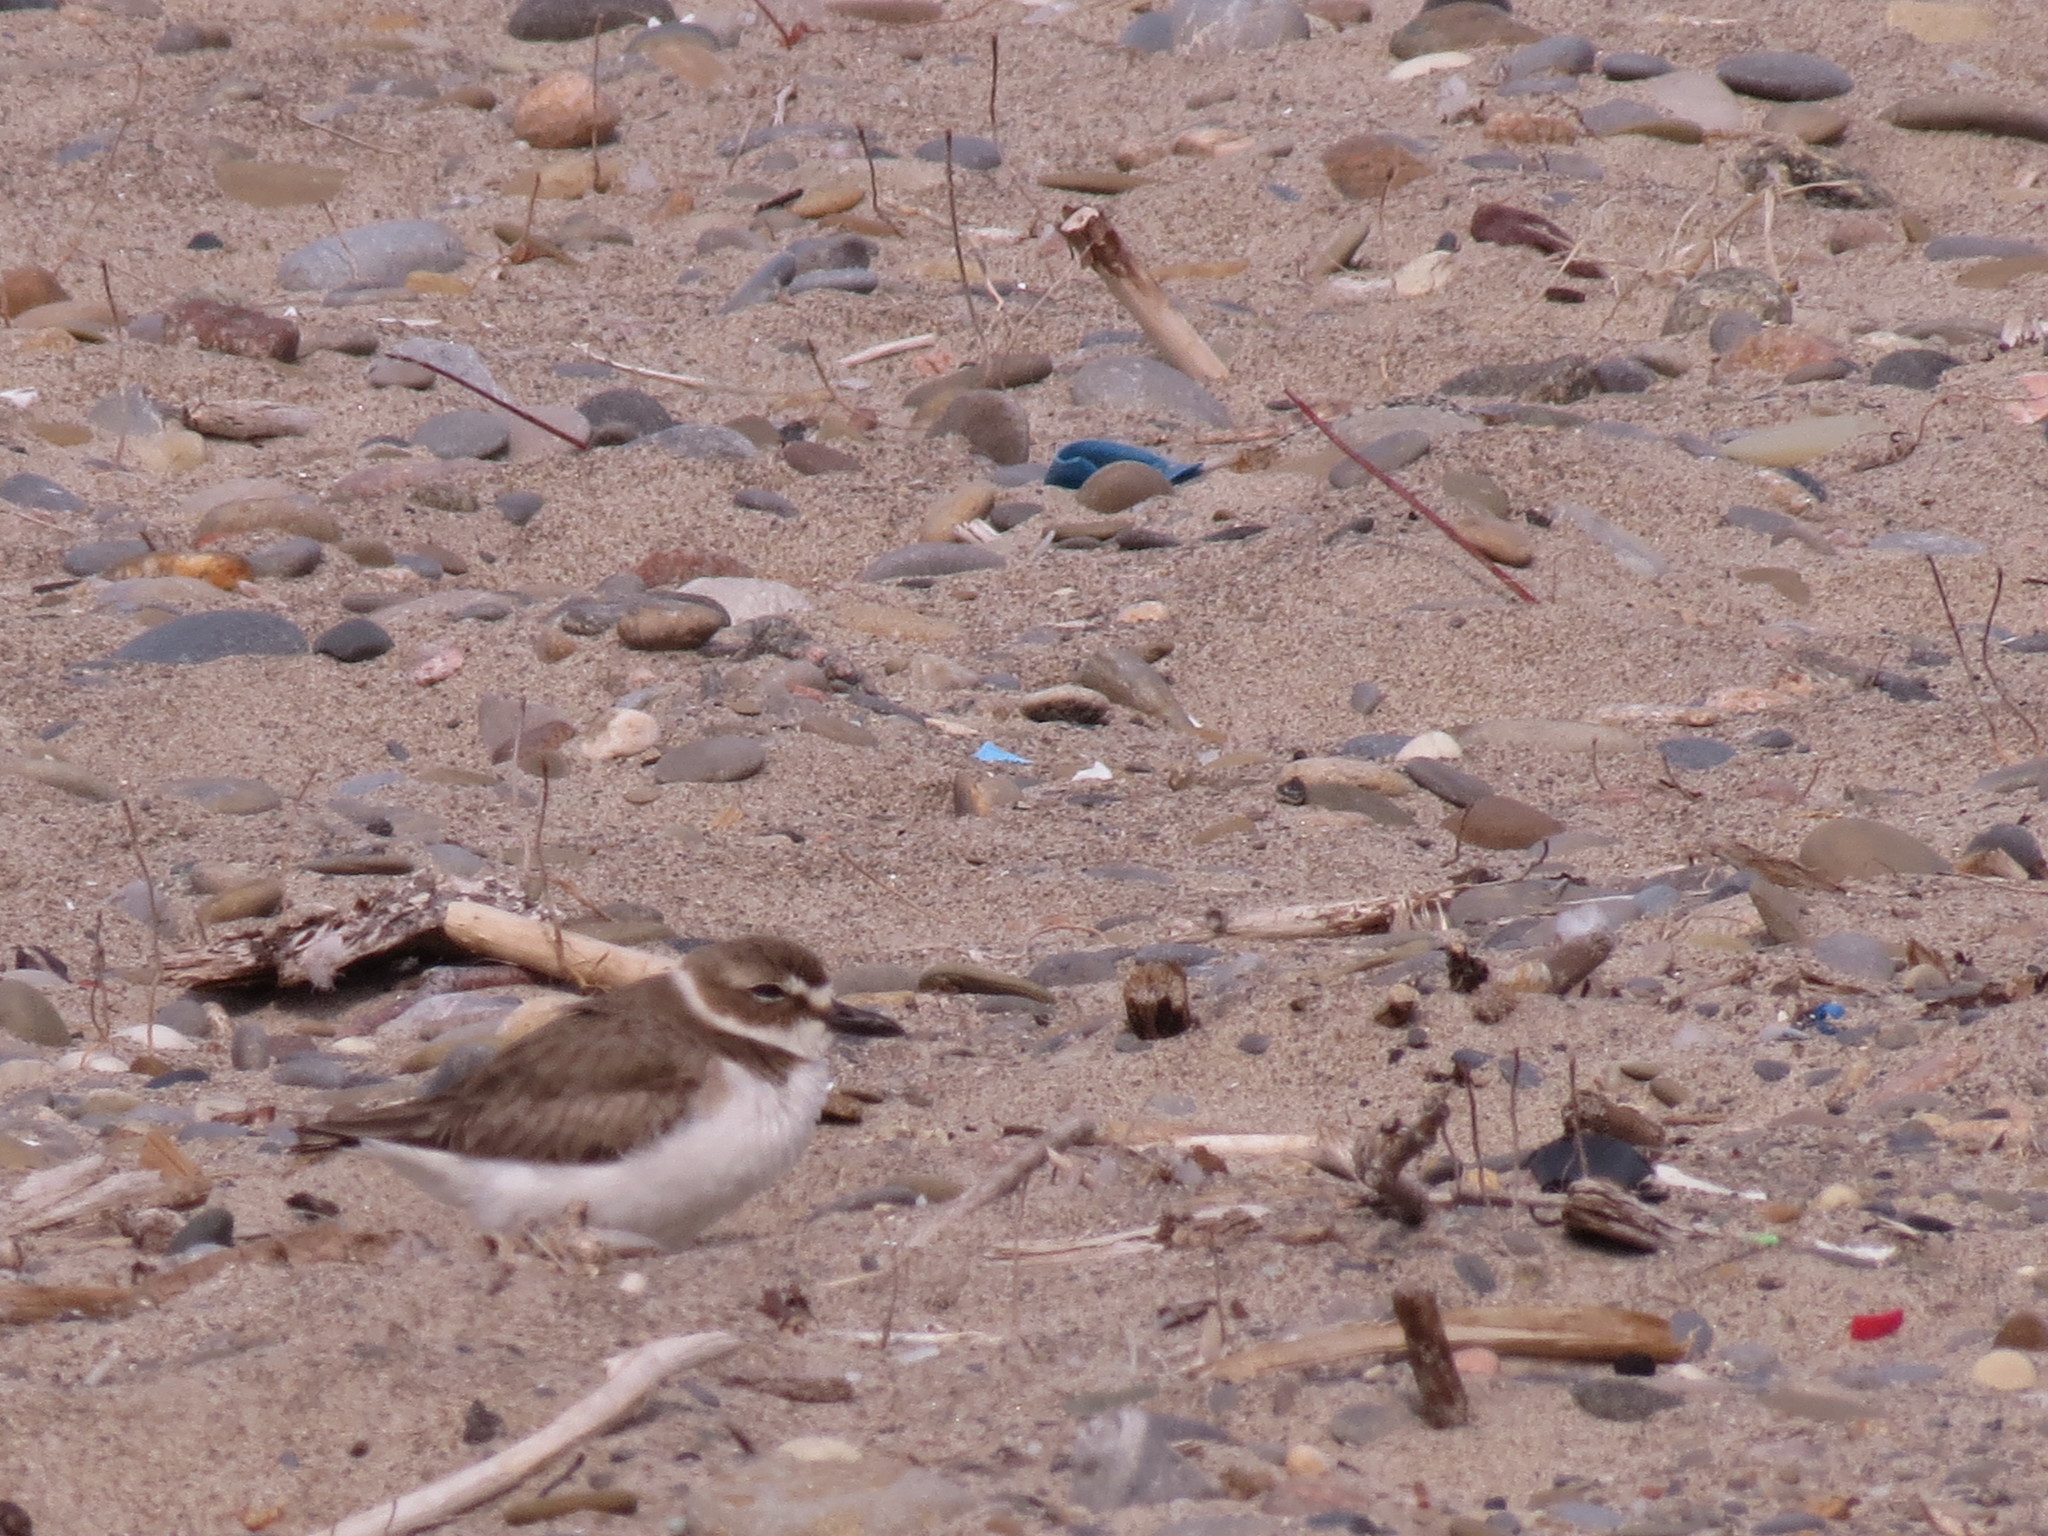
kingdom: Animalia
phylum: Chordata
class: Aves
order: Charadriiformes
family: Charadriidae
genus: Anarhynchus
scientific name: Anarhynchus
